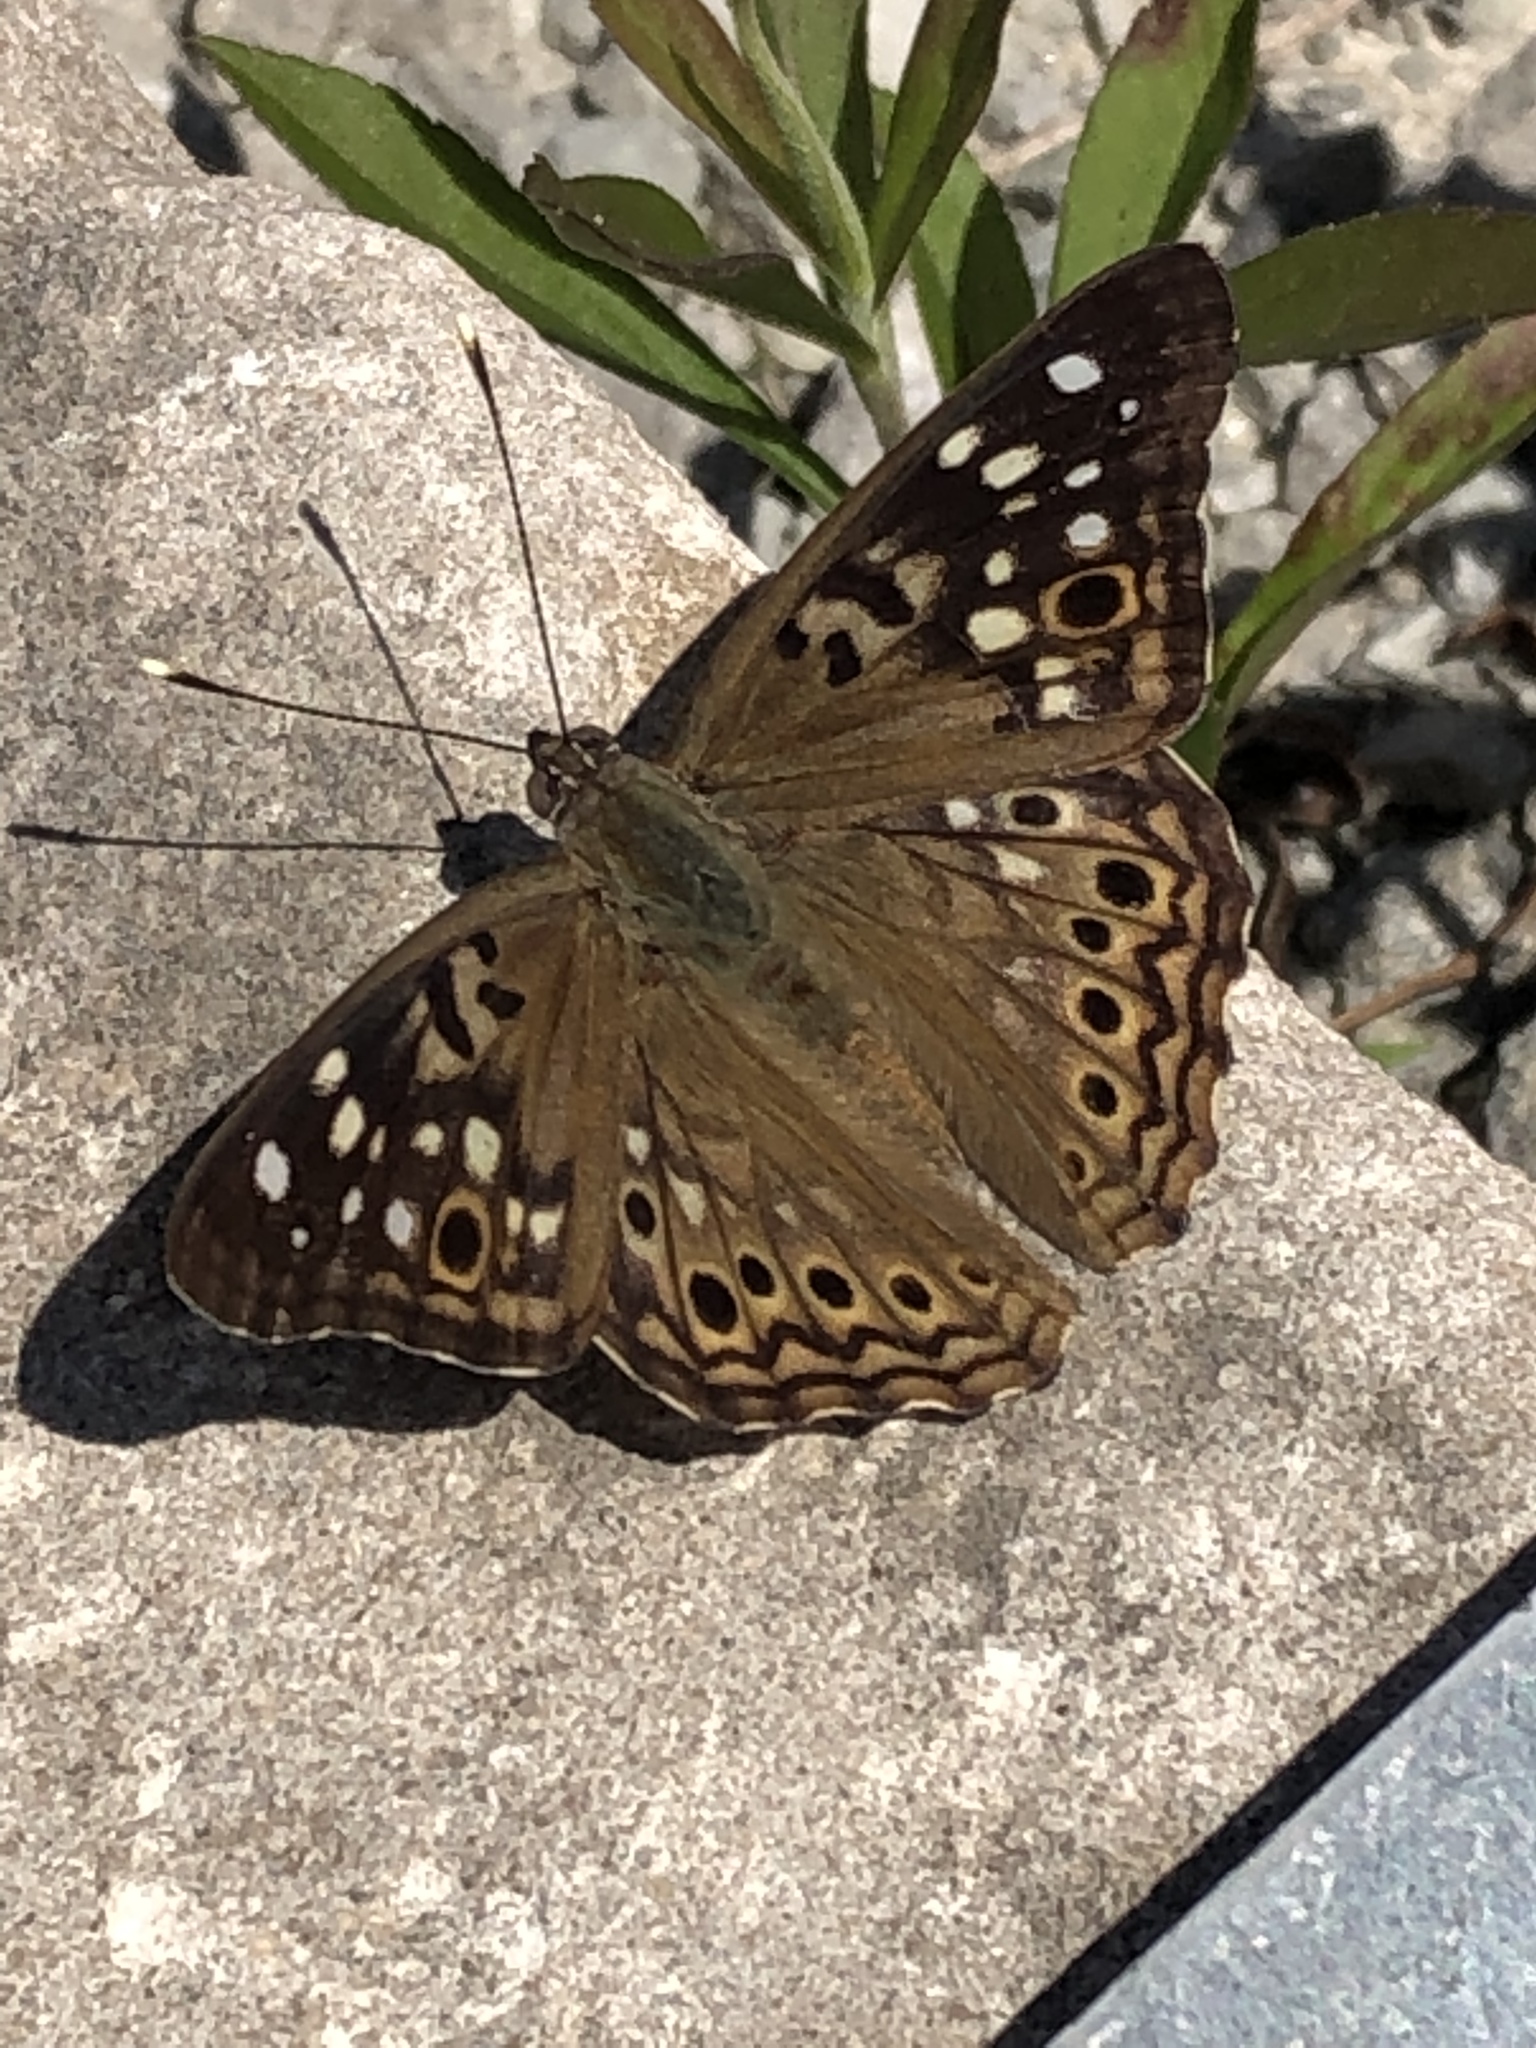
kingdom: Animalia
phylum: Arthropoda
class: Insecta
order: Lepidoptera
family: Nymphalidae
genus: Asterocampa
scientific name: Asterocampa celtis
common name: Hackberry emperor
